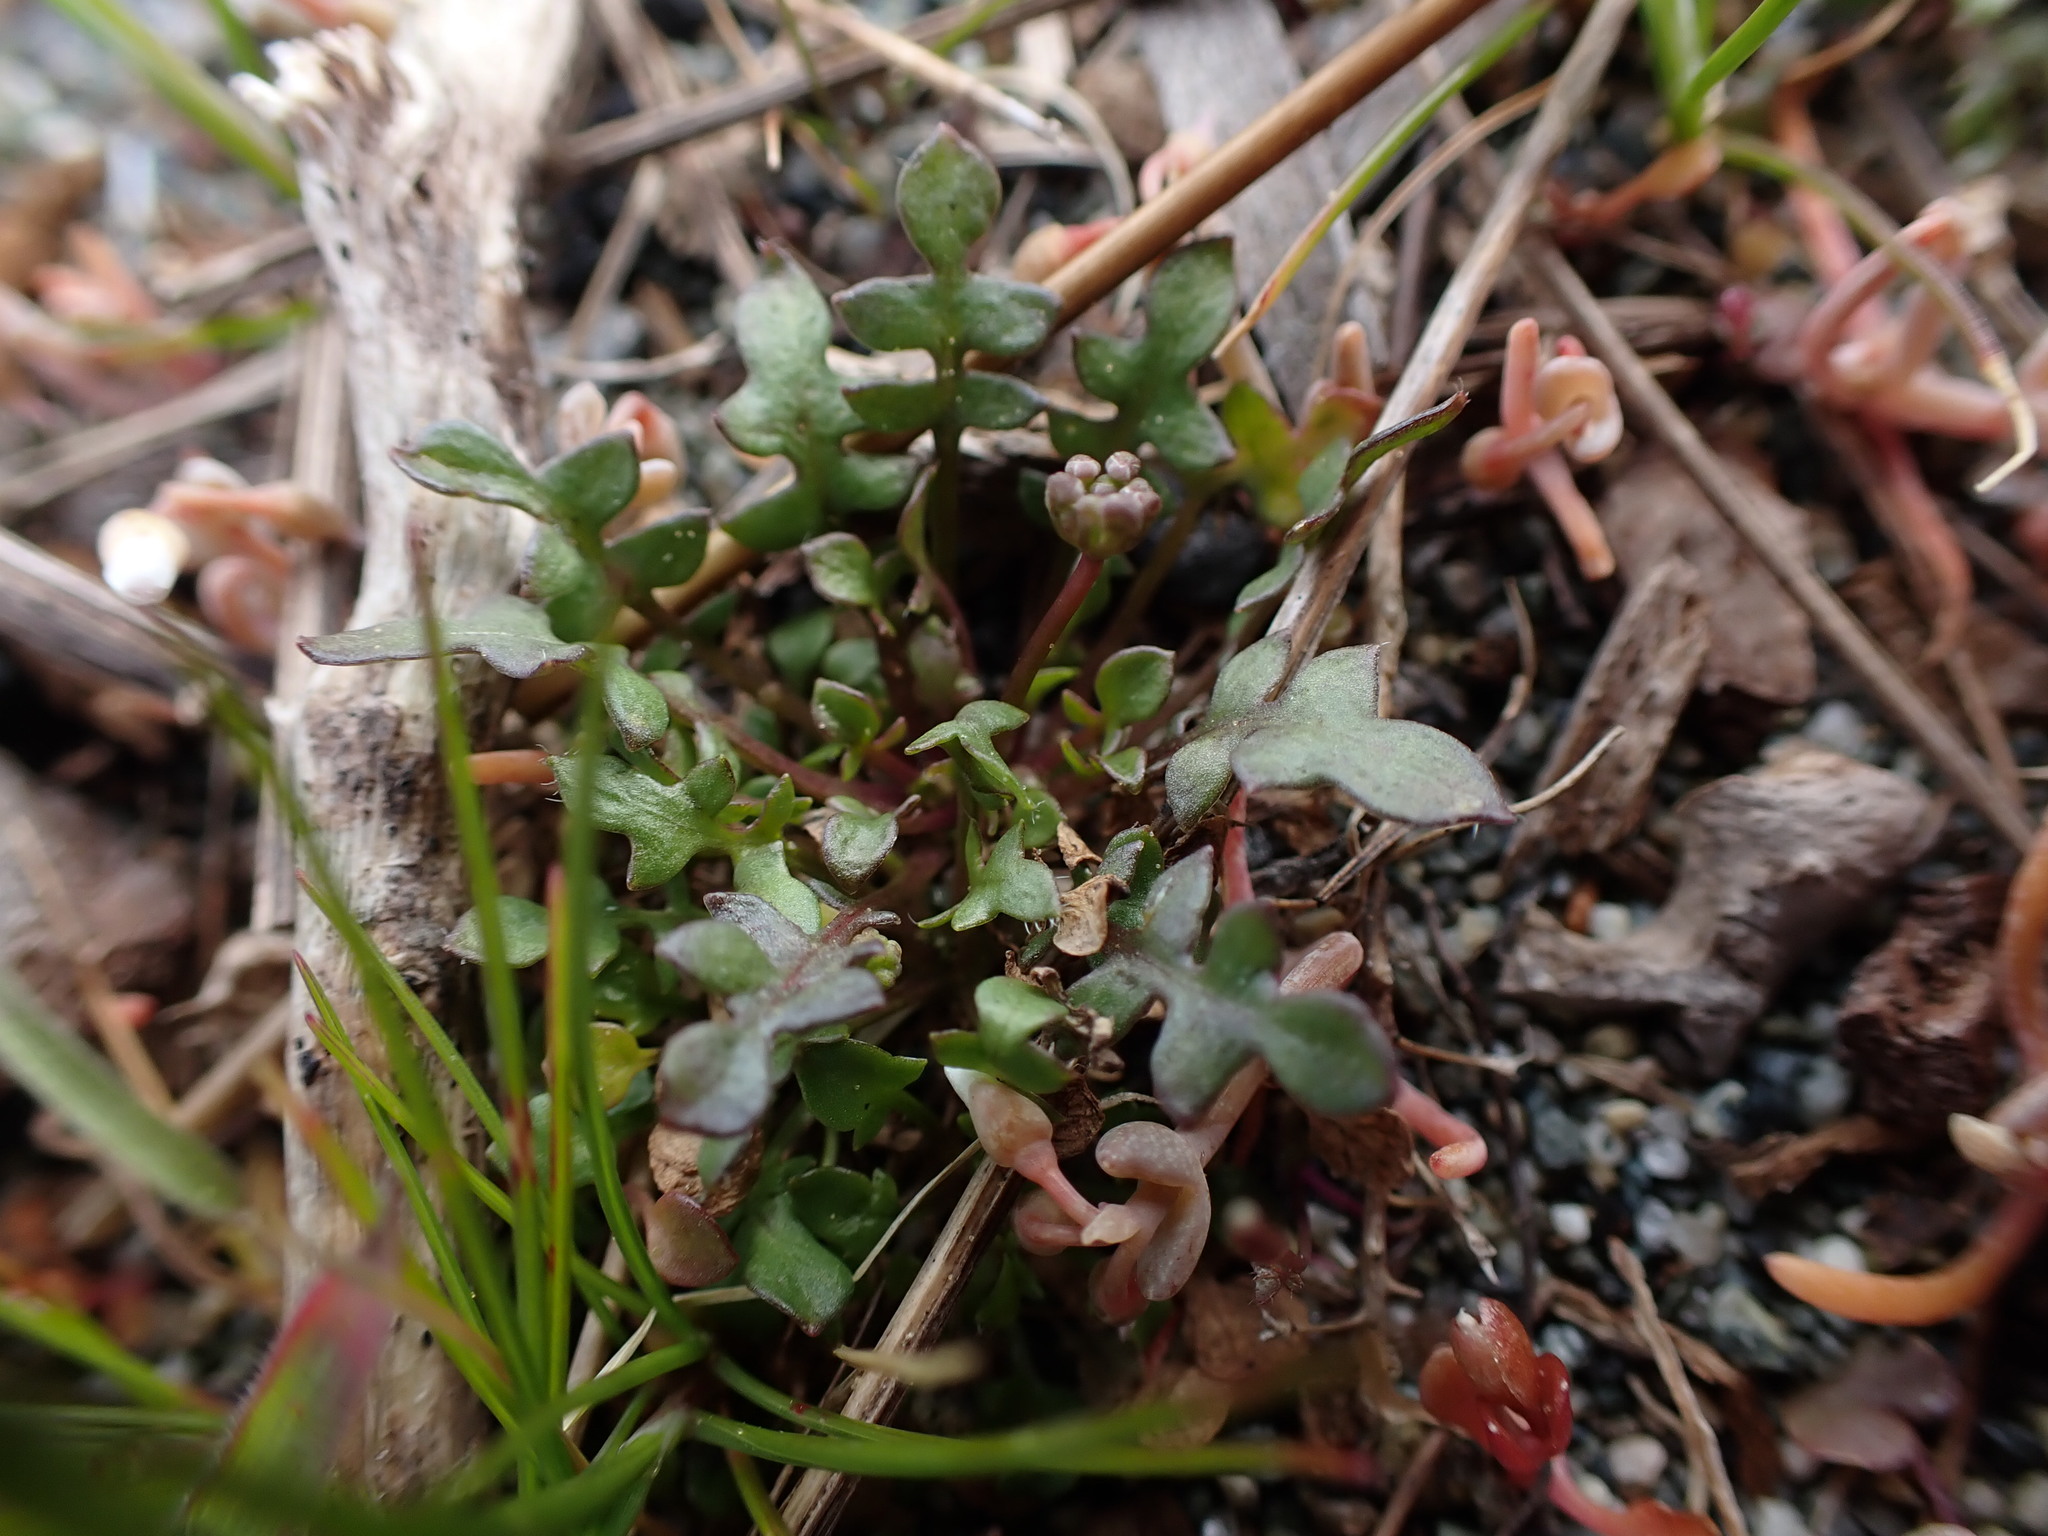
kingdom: Plantae
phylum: Tracheophyta
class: Magnoliopsida
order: Brassicales
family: Brassicaceae
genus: Teesdalia
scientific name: Teesdalia nudicaulis
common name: Shepherd's cress
